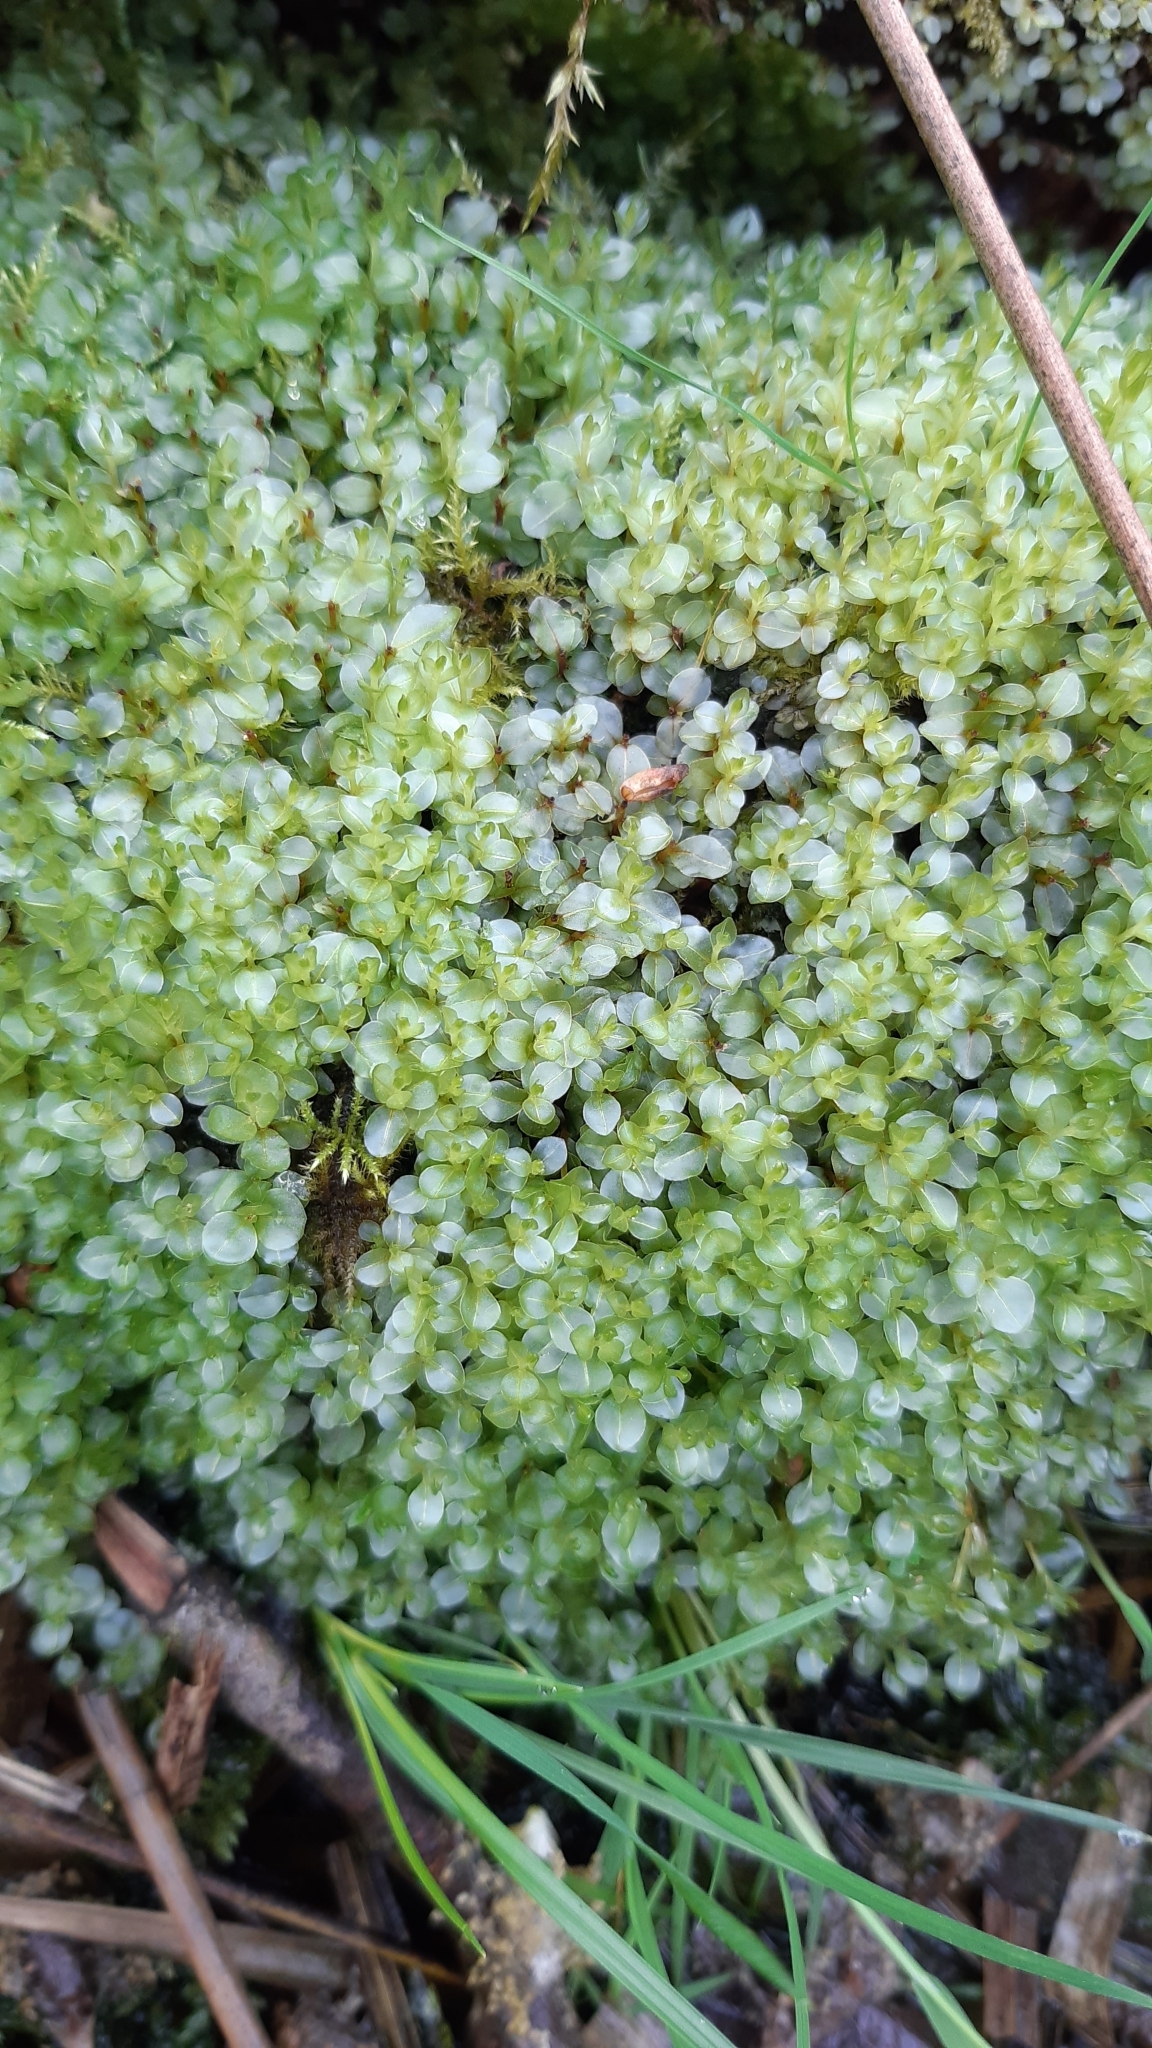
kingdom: Plantae
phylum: Bryophyta
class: Bryopsida
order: Bryales
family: Mniaceae
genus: Rhizomnium
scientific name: Rhizomnium punctatum
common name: Dotted leafy moss
